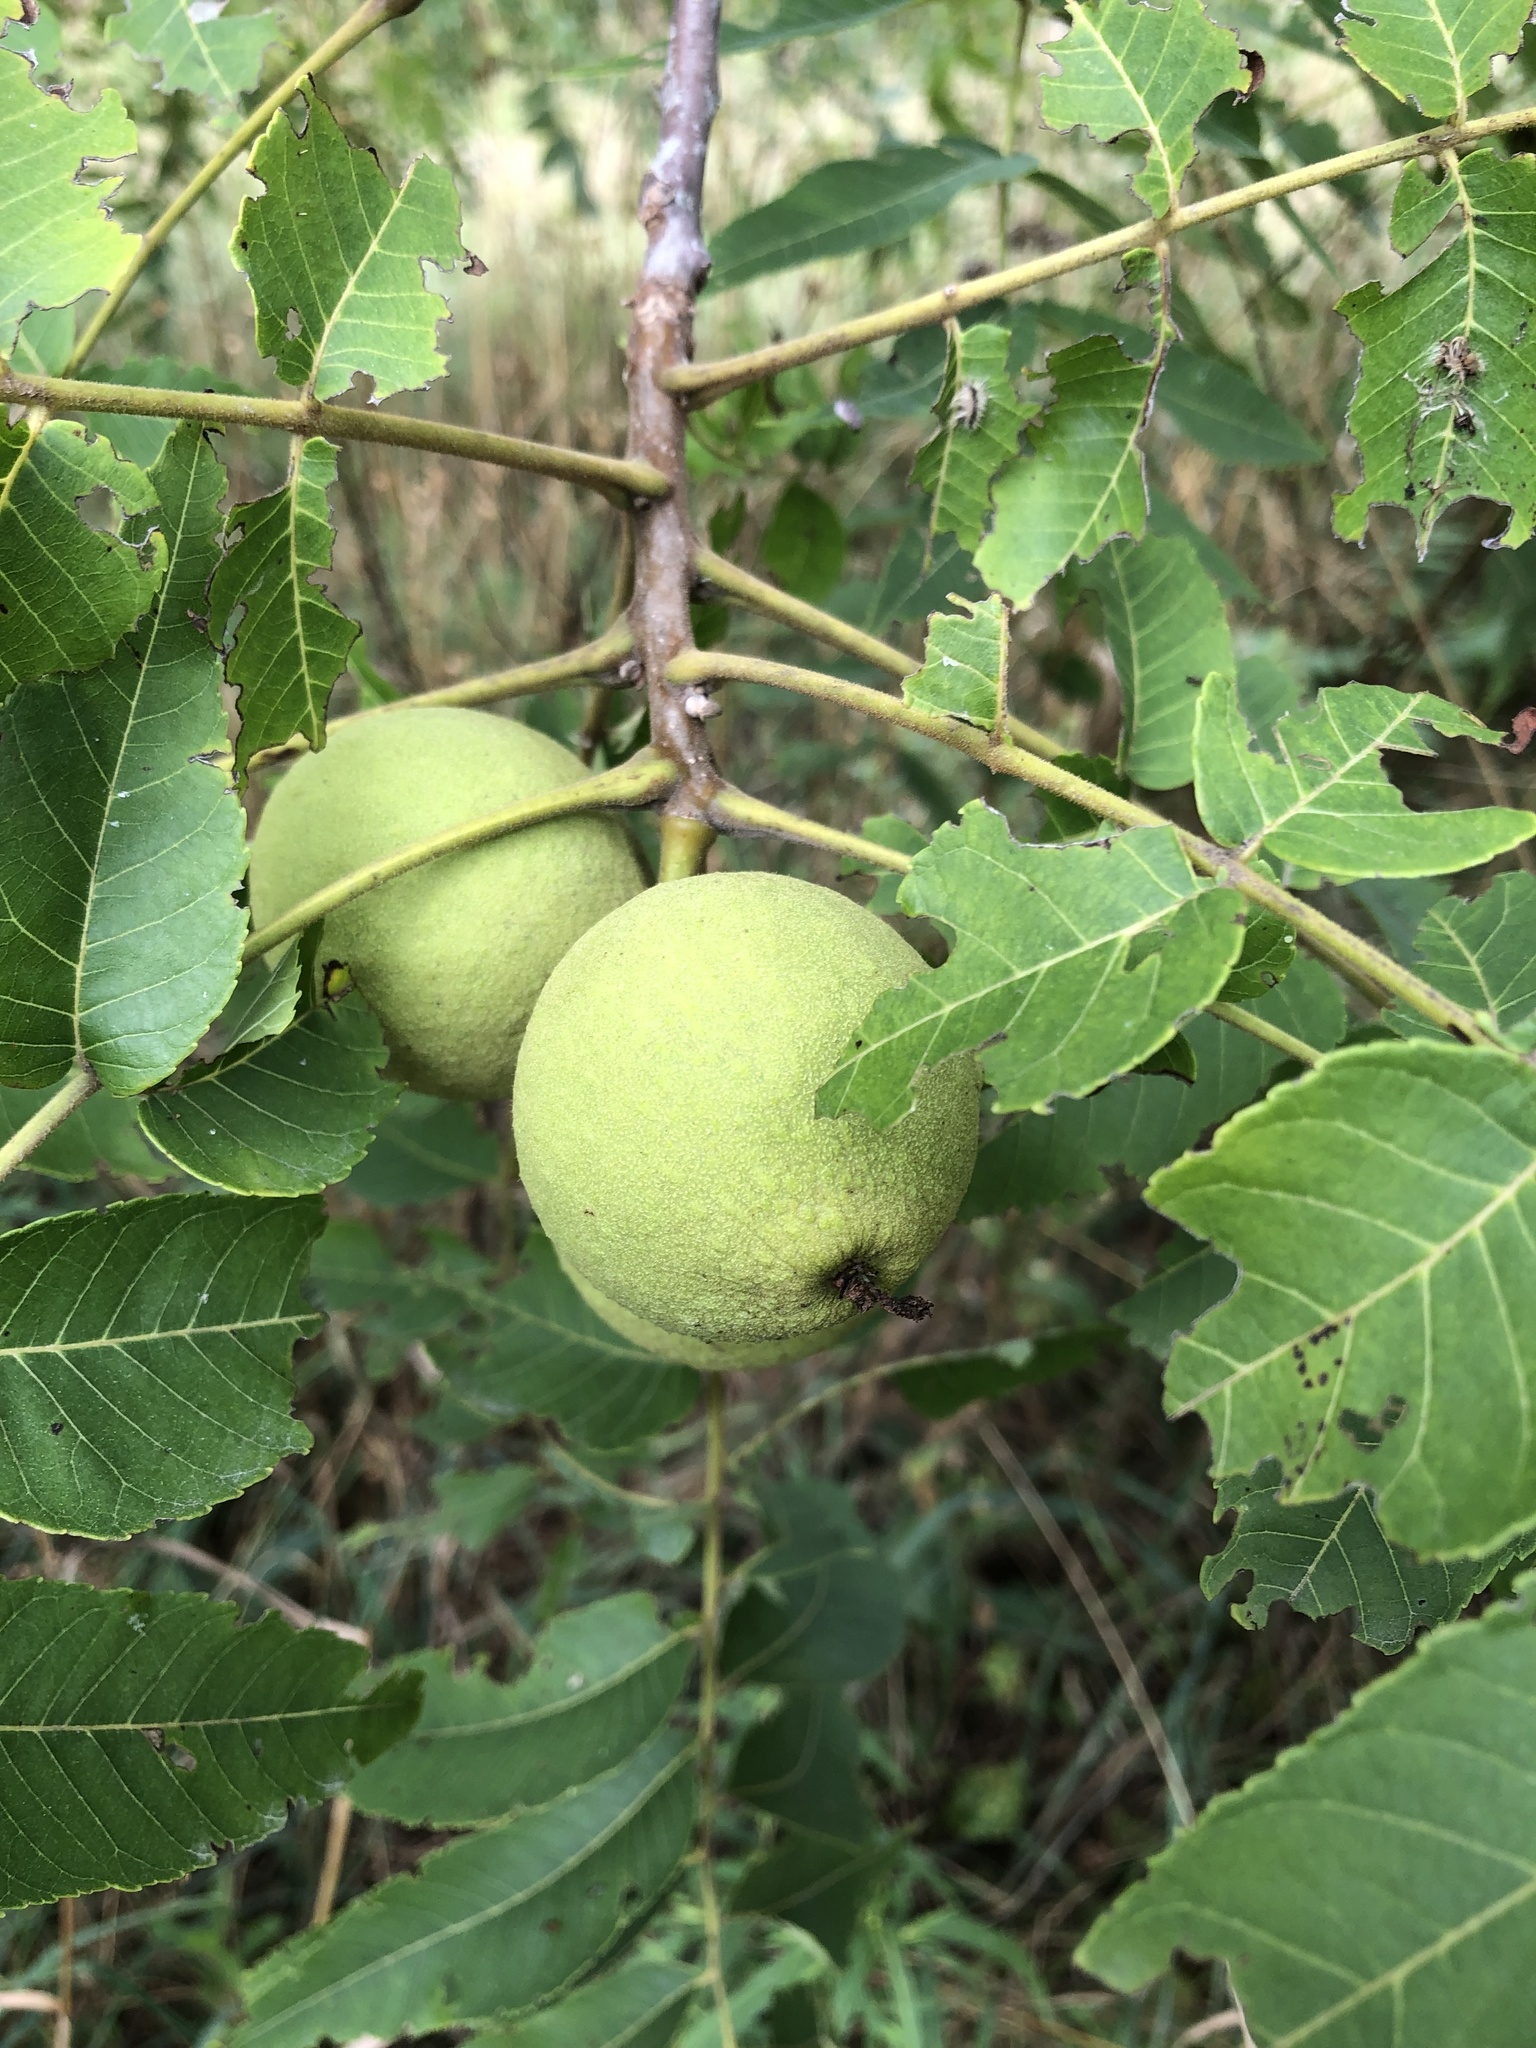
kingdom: Plantae
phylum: Tracheophyta
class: Magnoliopsida
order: Fagales
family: Juglandaceae
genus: Juglans
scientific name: Juglans nigra
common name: Black walnut
